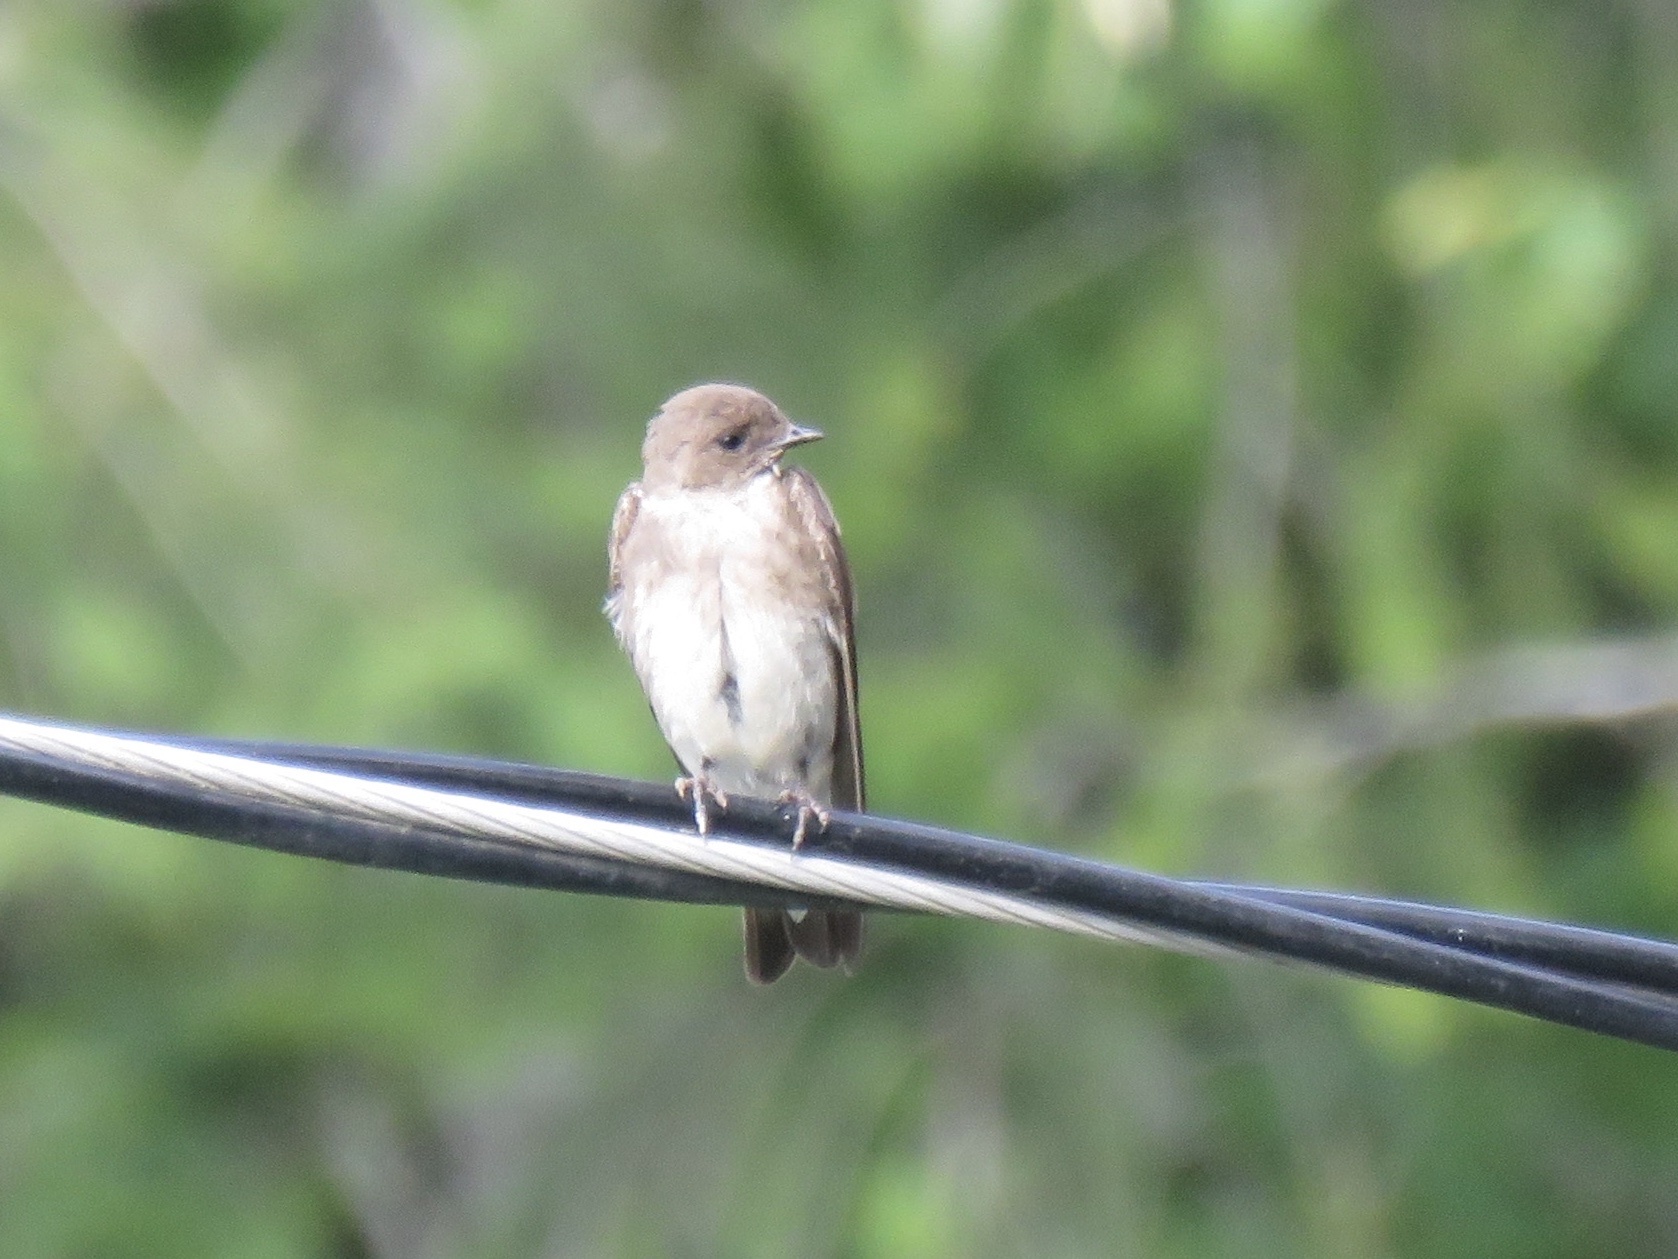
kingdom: Animalia
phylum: Chordata
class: Aves
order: Passeriformes
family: Hirundinidae
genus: Stelgidopteryx
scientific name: Stelgidopteryx serripennis
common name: Northern rough-winged swallow
